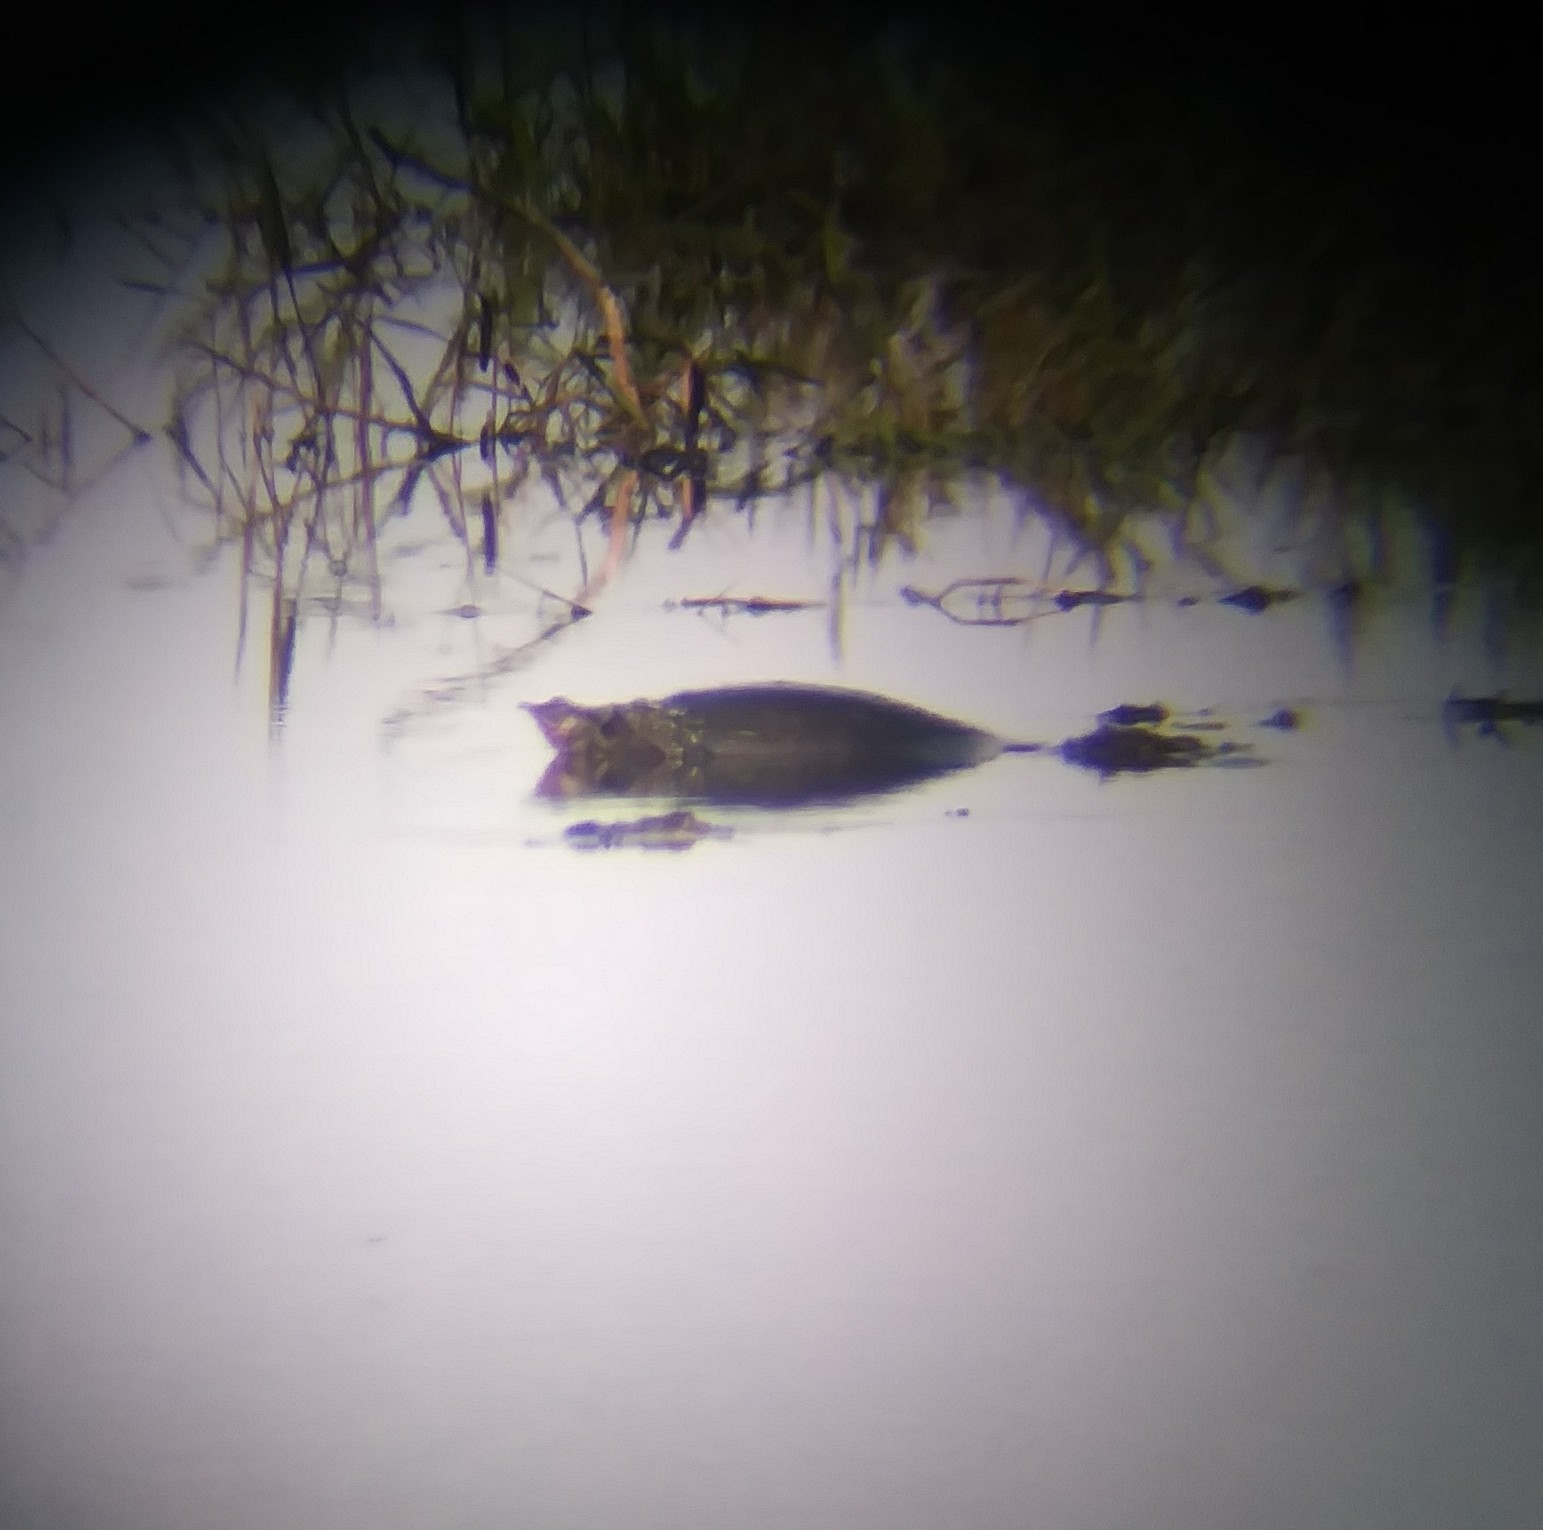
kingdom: Animalia
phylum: Chordata
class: Testudines
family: Trionychidae
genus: Apalone
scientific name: Apalone ferox
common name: Florida softshell turtle
